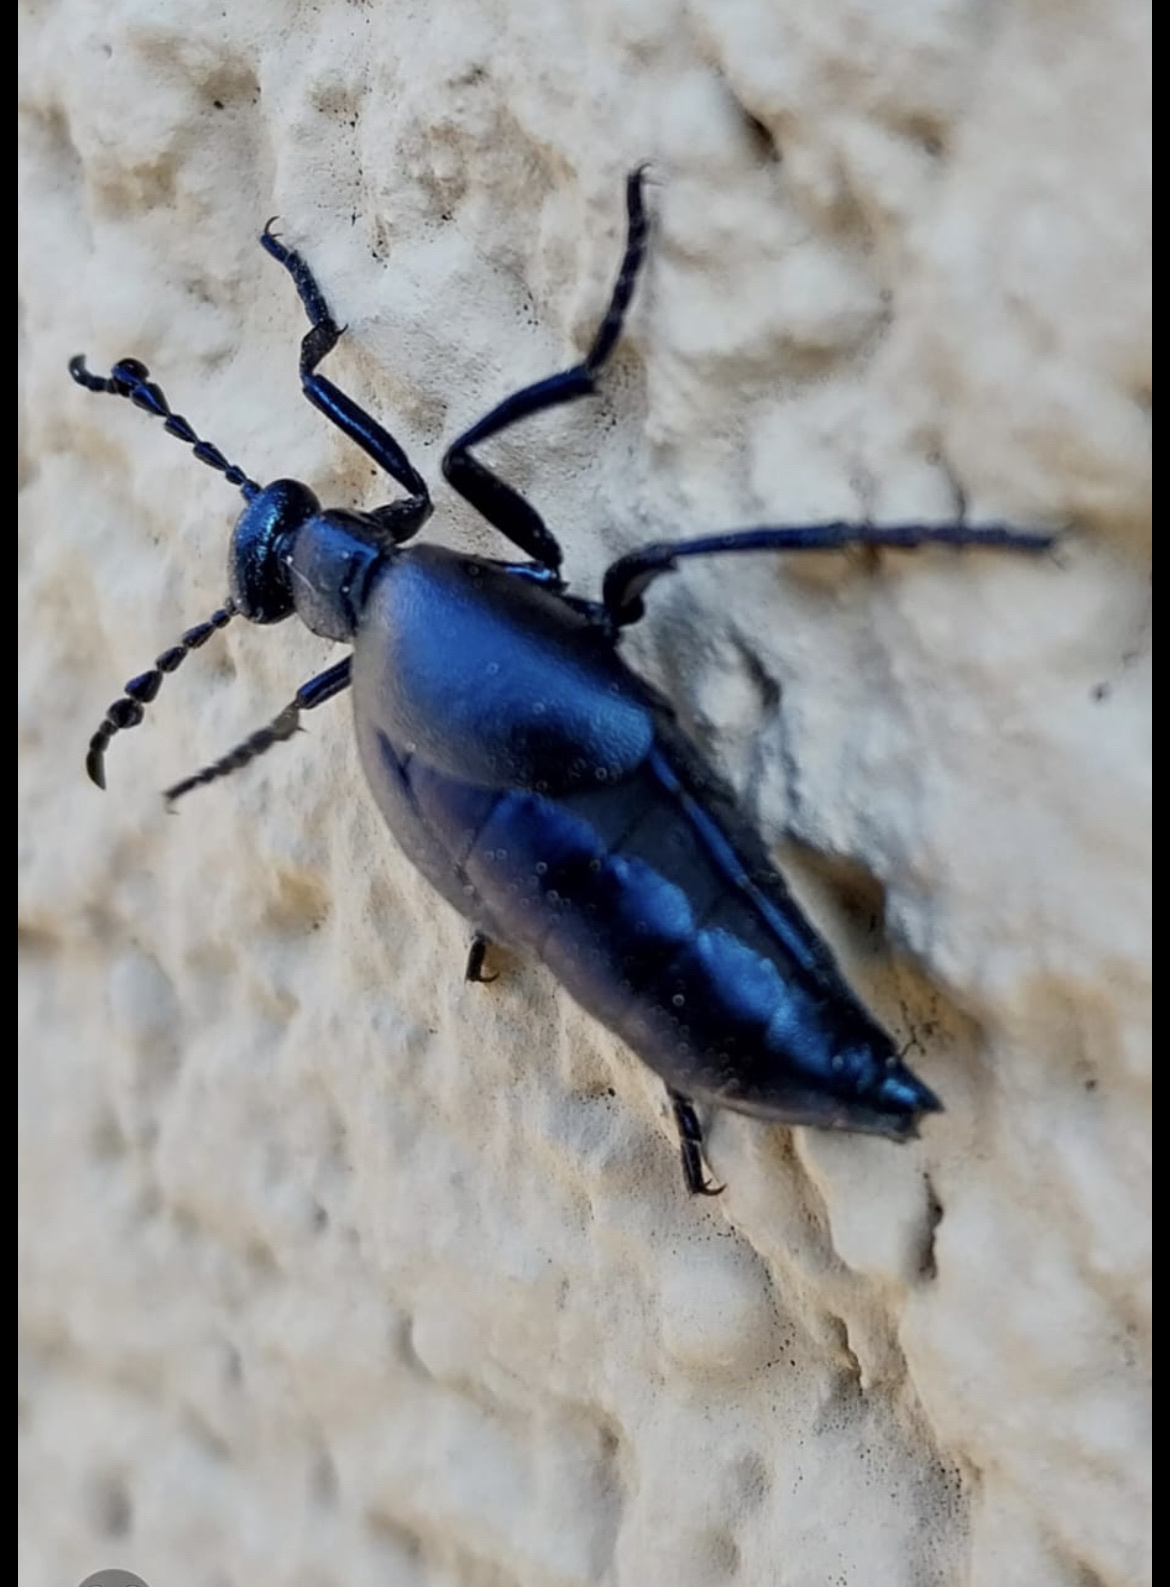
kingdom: Animalia
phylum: Arthropoda
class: Insecta
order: Coleoptera
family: Meloidae
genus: Meloe
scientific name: Meloe violaceus
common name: Violet oil-beetle
